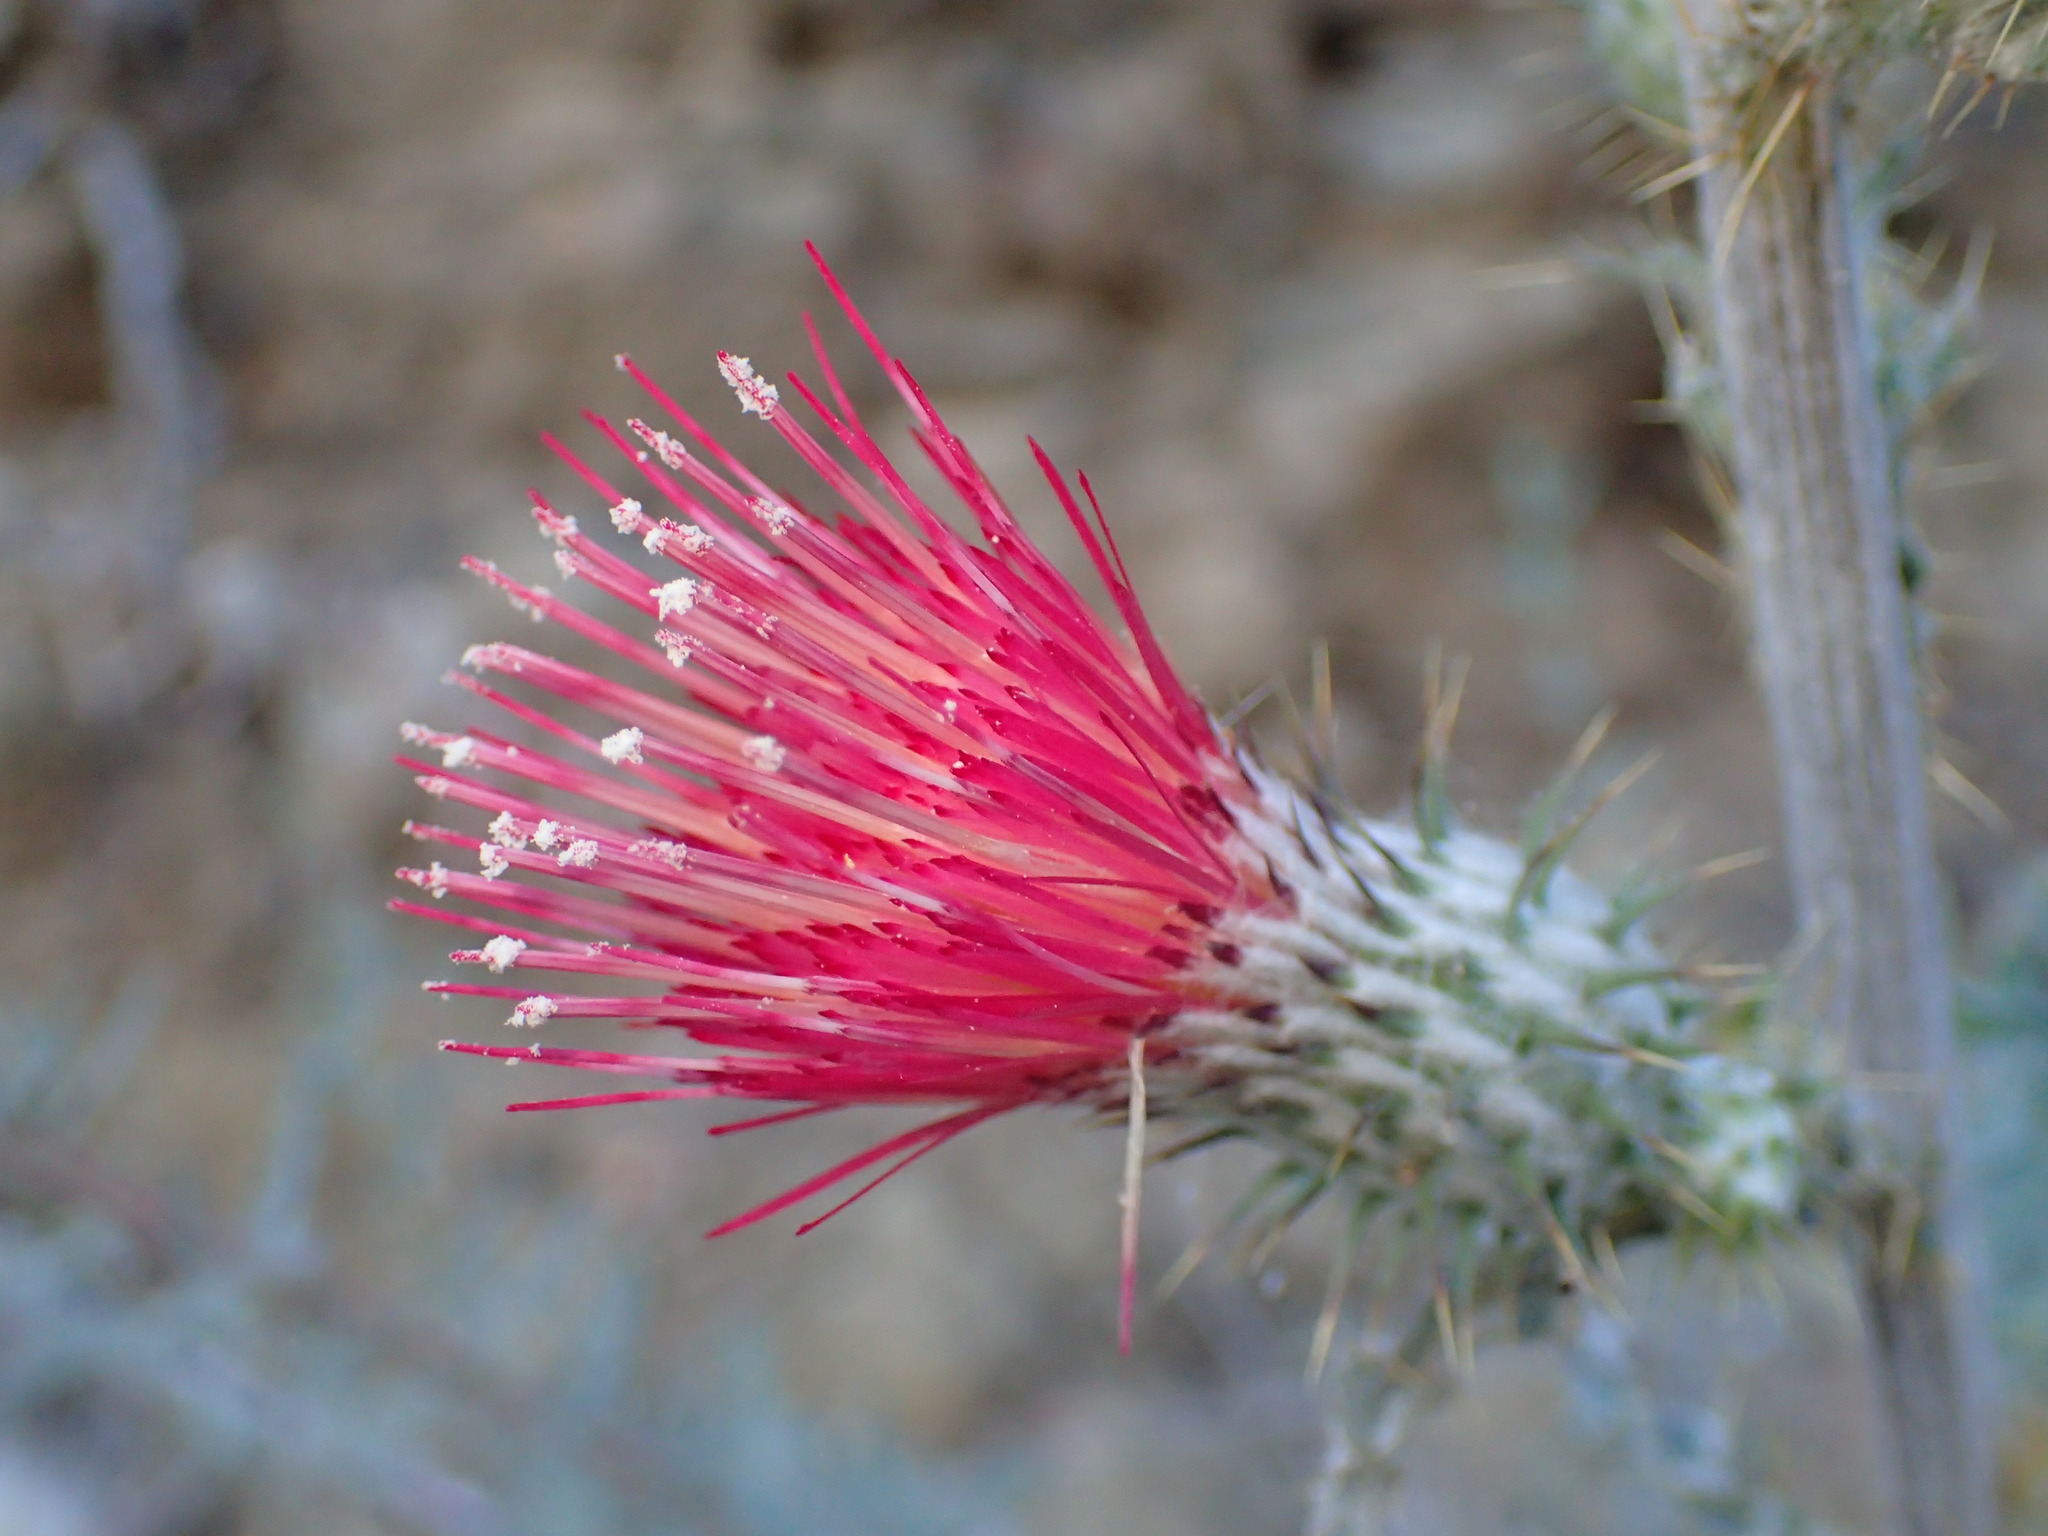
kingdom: Plantae
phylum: Tracheophyta
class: Magnoliopsida
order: Asterales
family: Asteraceae
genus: Cirsium
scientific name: Cirsium occidentale
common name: Western thistle
